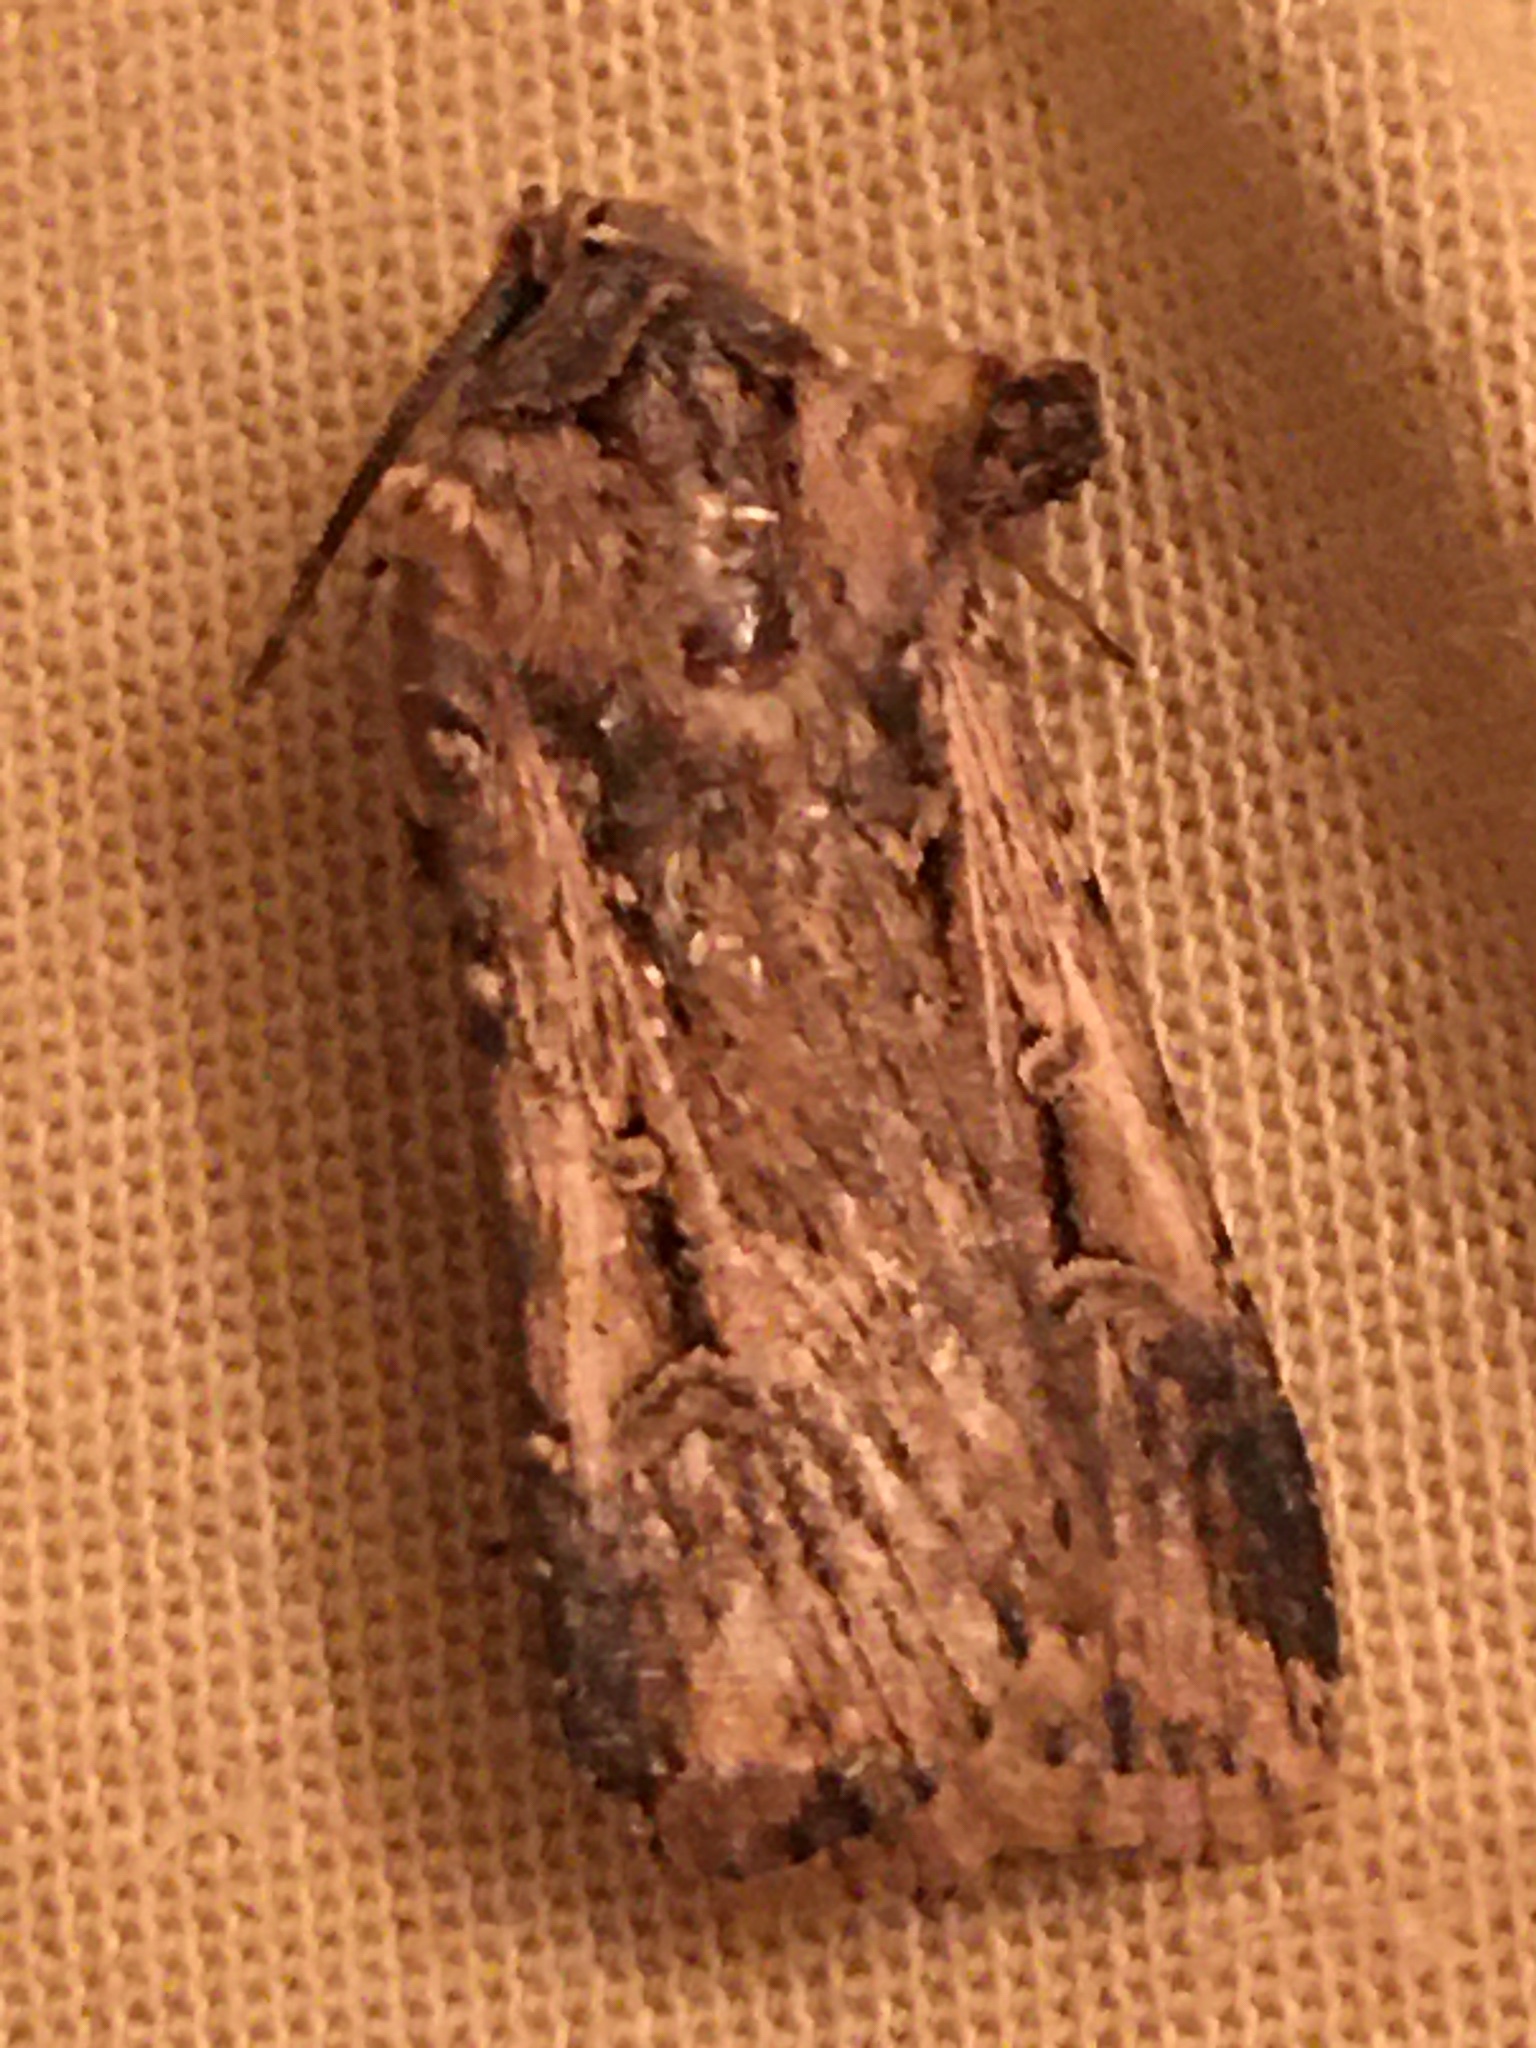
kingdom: Animalia
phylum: Arthropoda
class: Insecta
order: Lepidoptera
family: Noctuidae
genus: Feltia
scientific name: Feltia subterranea
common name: Granulate cutworm
